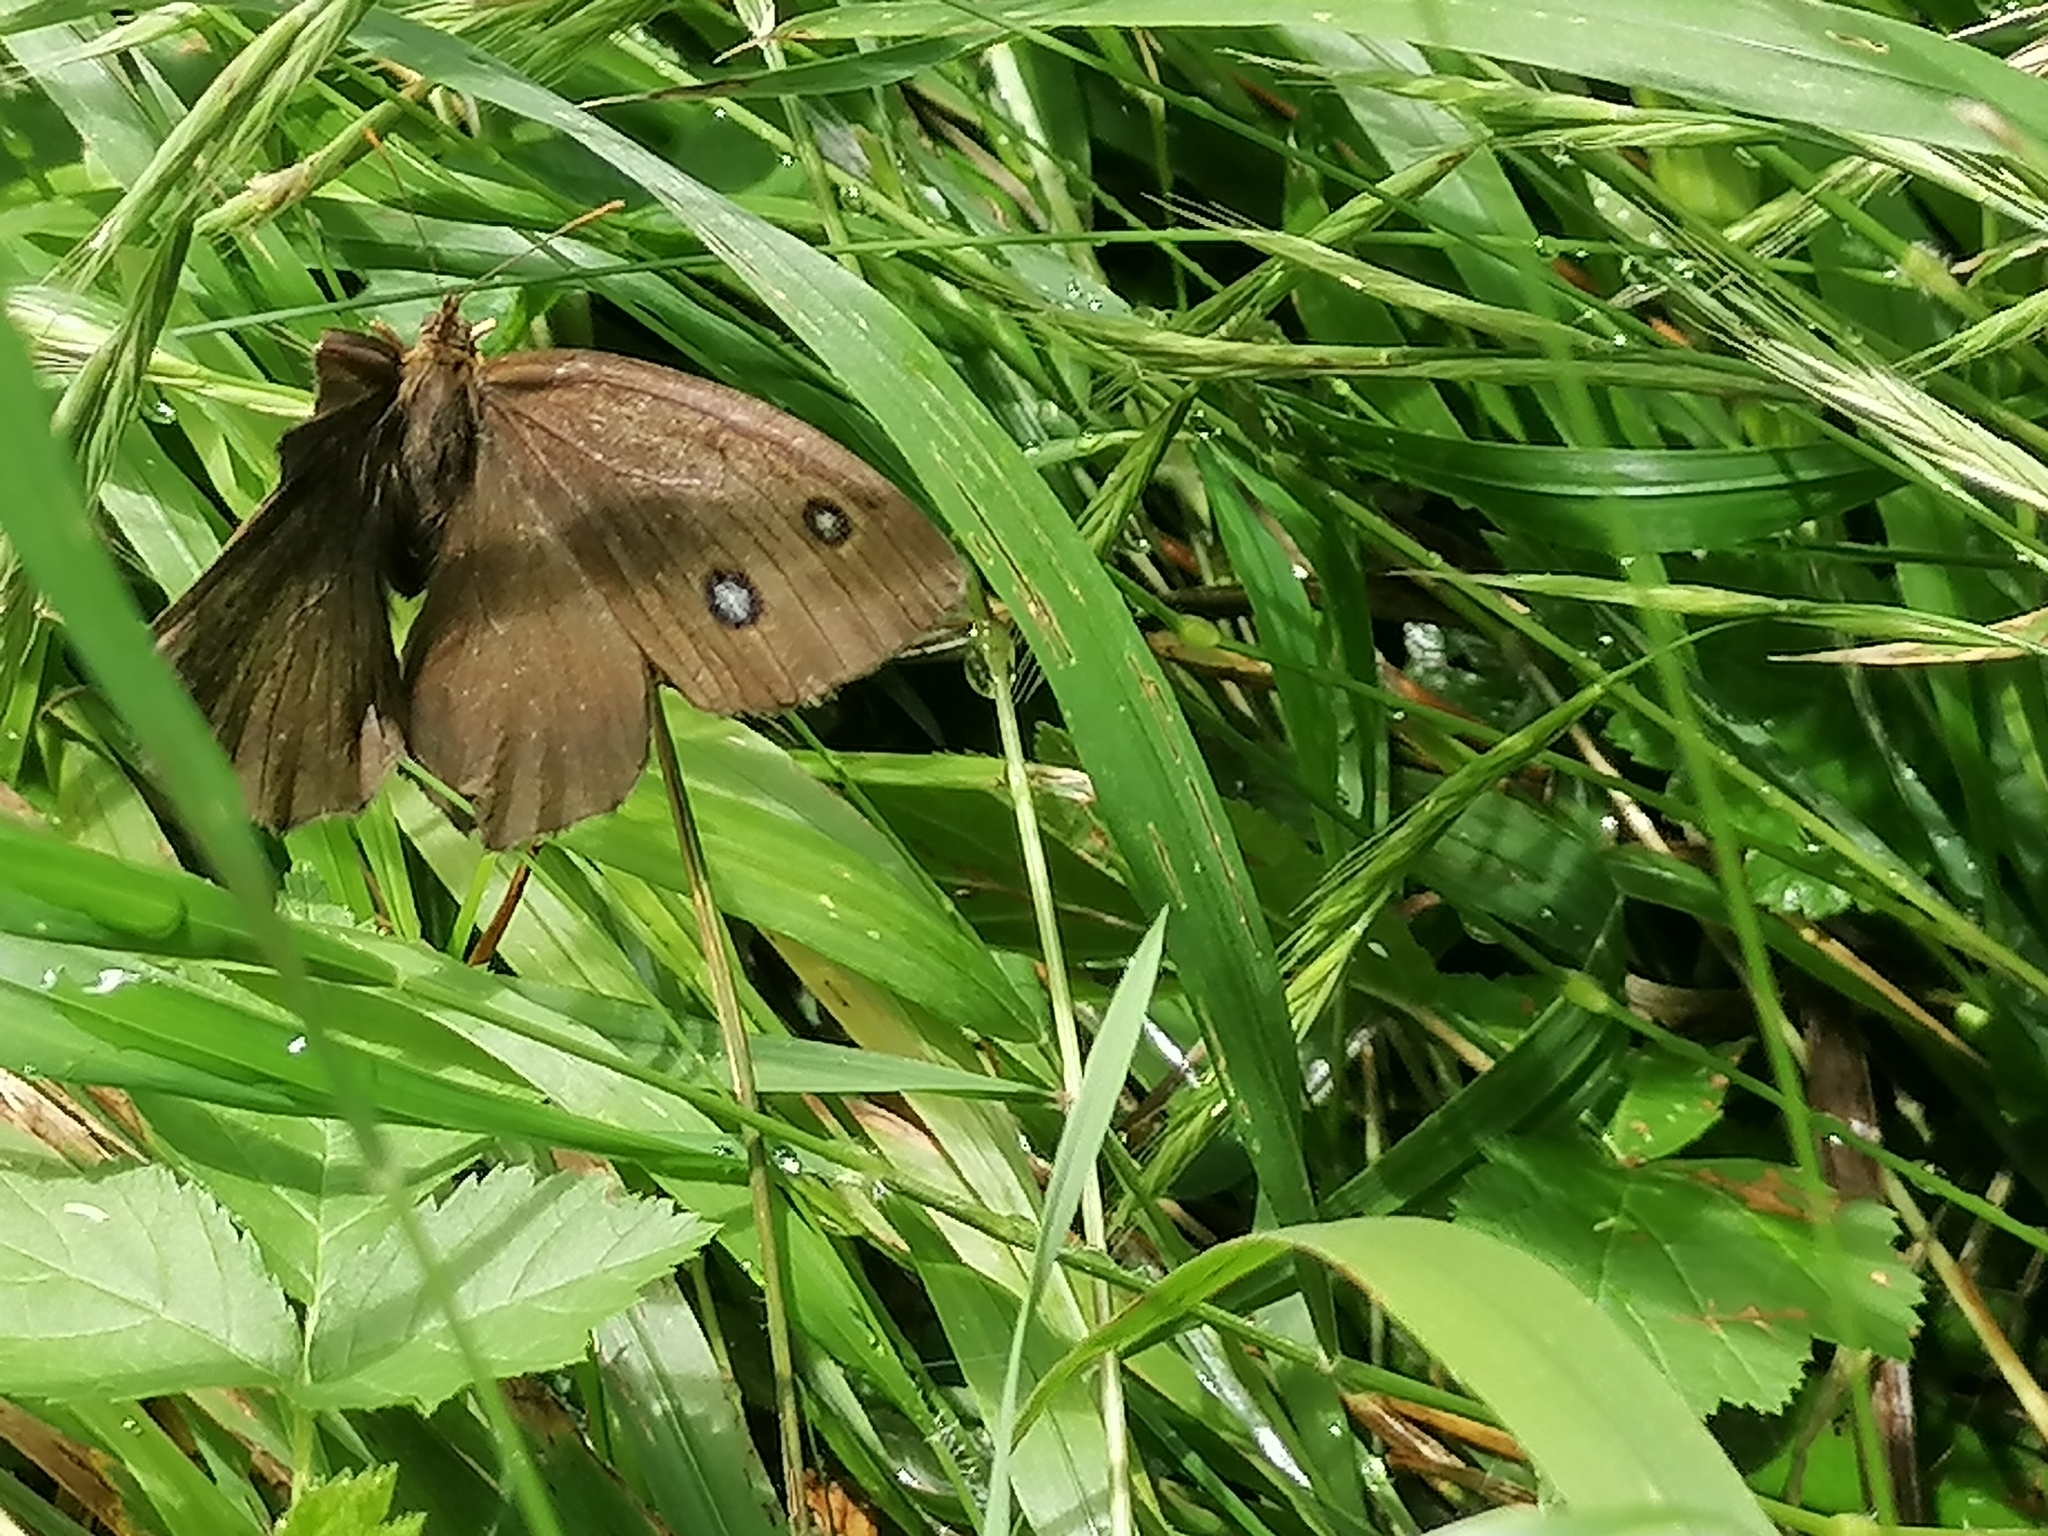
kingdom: Animalia
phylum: Arthropoda
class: Insecta
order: Lepidoptera
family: Nymphalidae
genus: Minois
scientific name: Minois dryas
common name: Dryad
